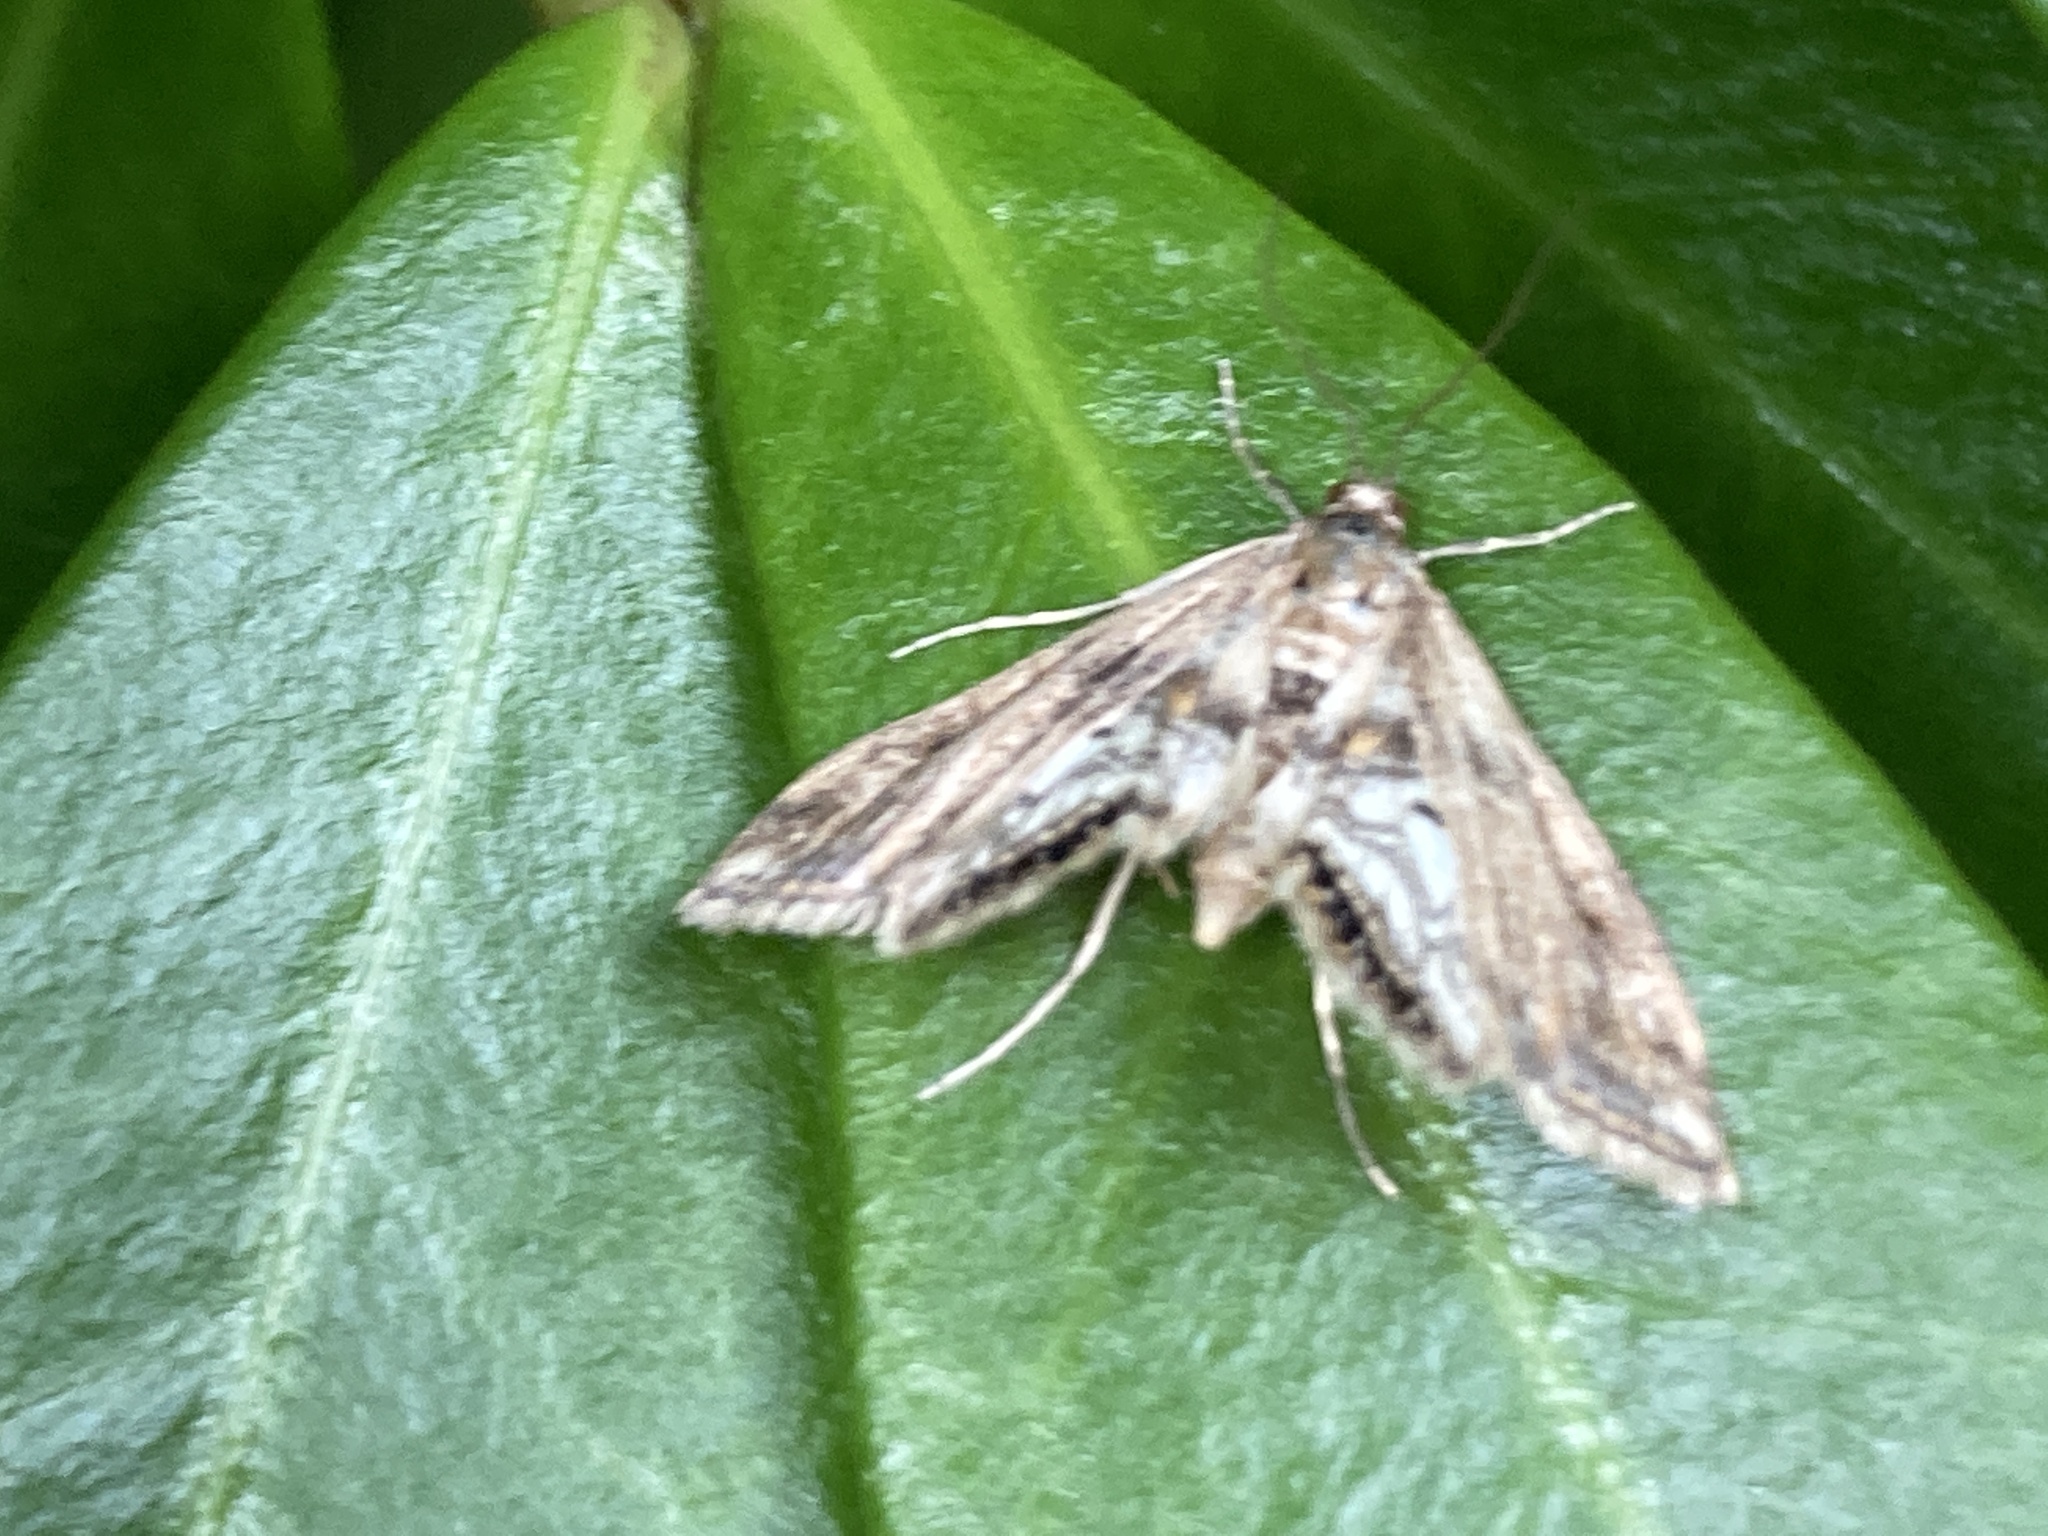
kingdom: Animalia
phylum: Arthropoda
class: Insecta
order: Lepidoptera
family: Crambidae
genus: Cataclysta
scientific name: Cataclysta lemnata
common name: Small china-mark
